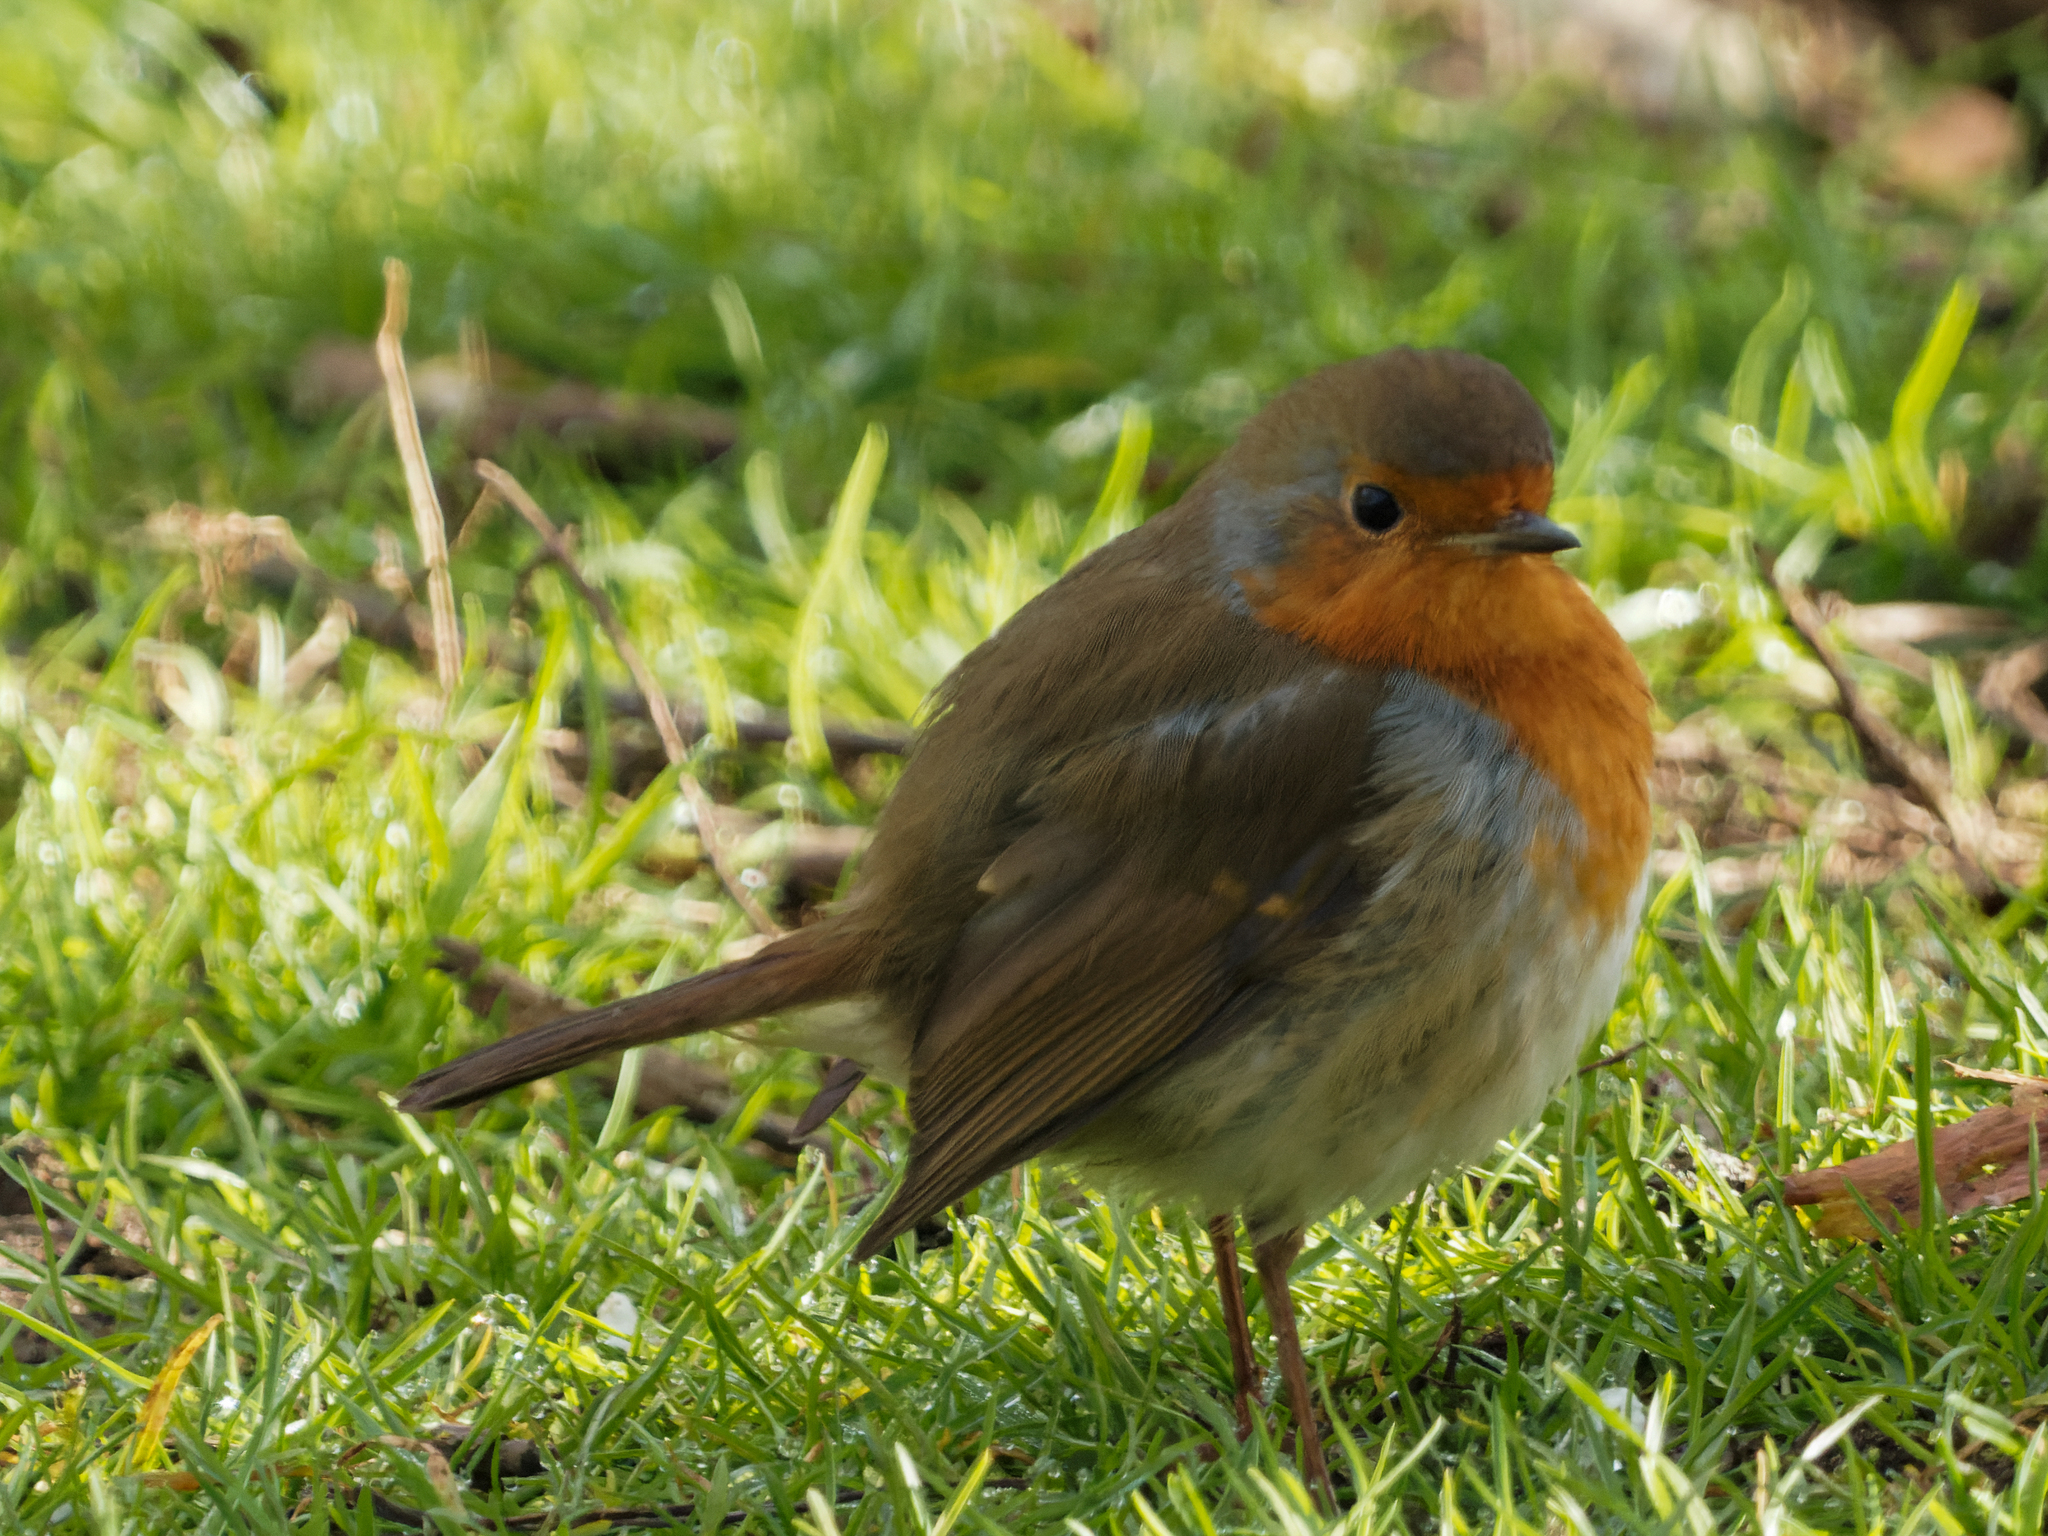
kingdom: Animalia
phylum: Chordata
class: Aves
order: Passeriformes
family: Muscicapidae
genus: Erithacus
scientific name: Erithacus rubecula
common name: European robin
